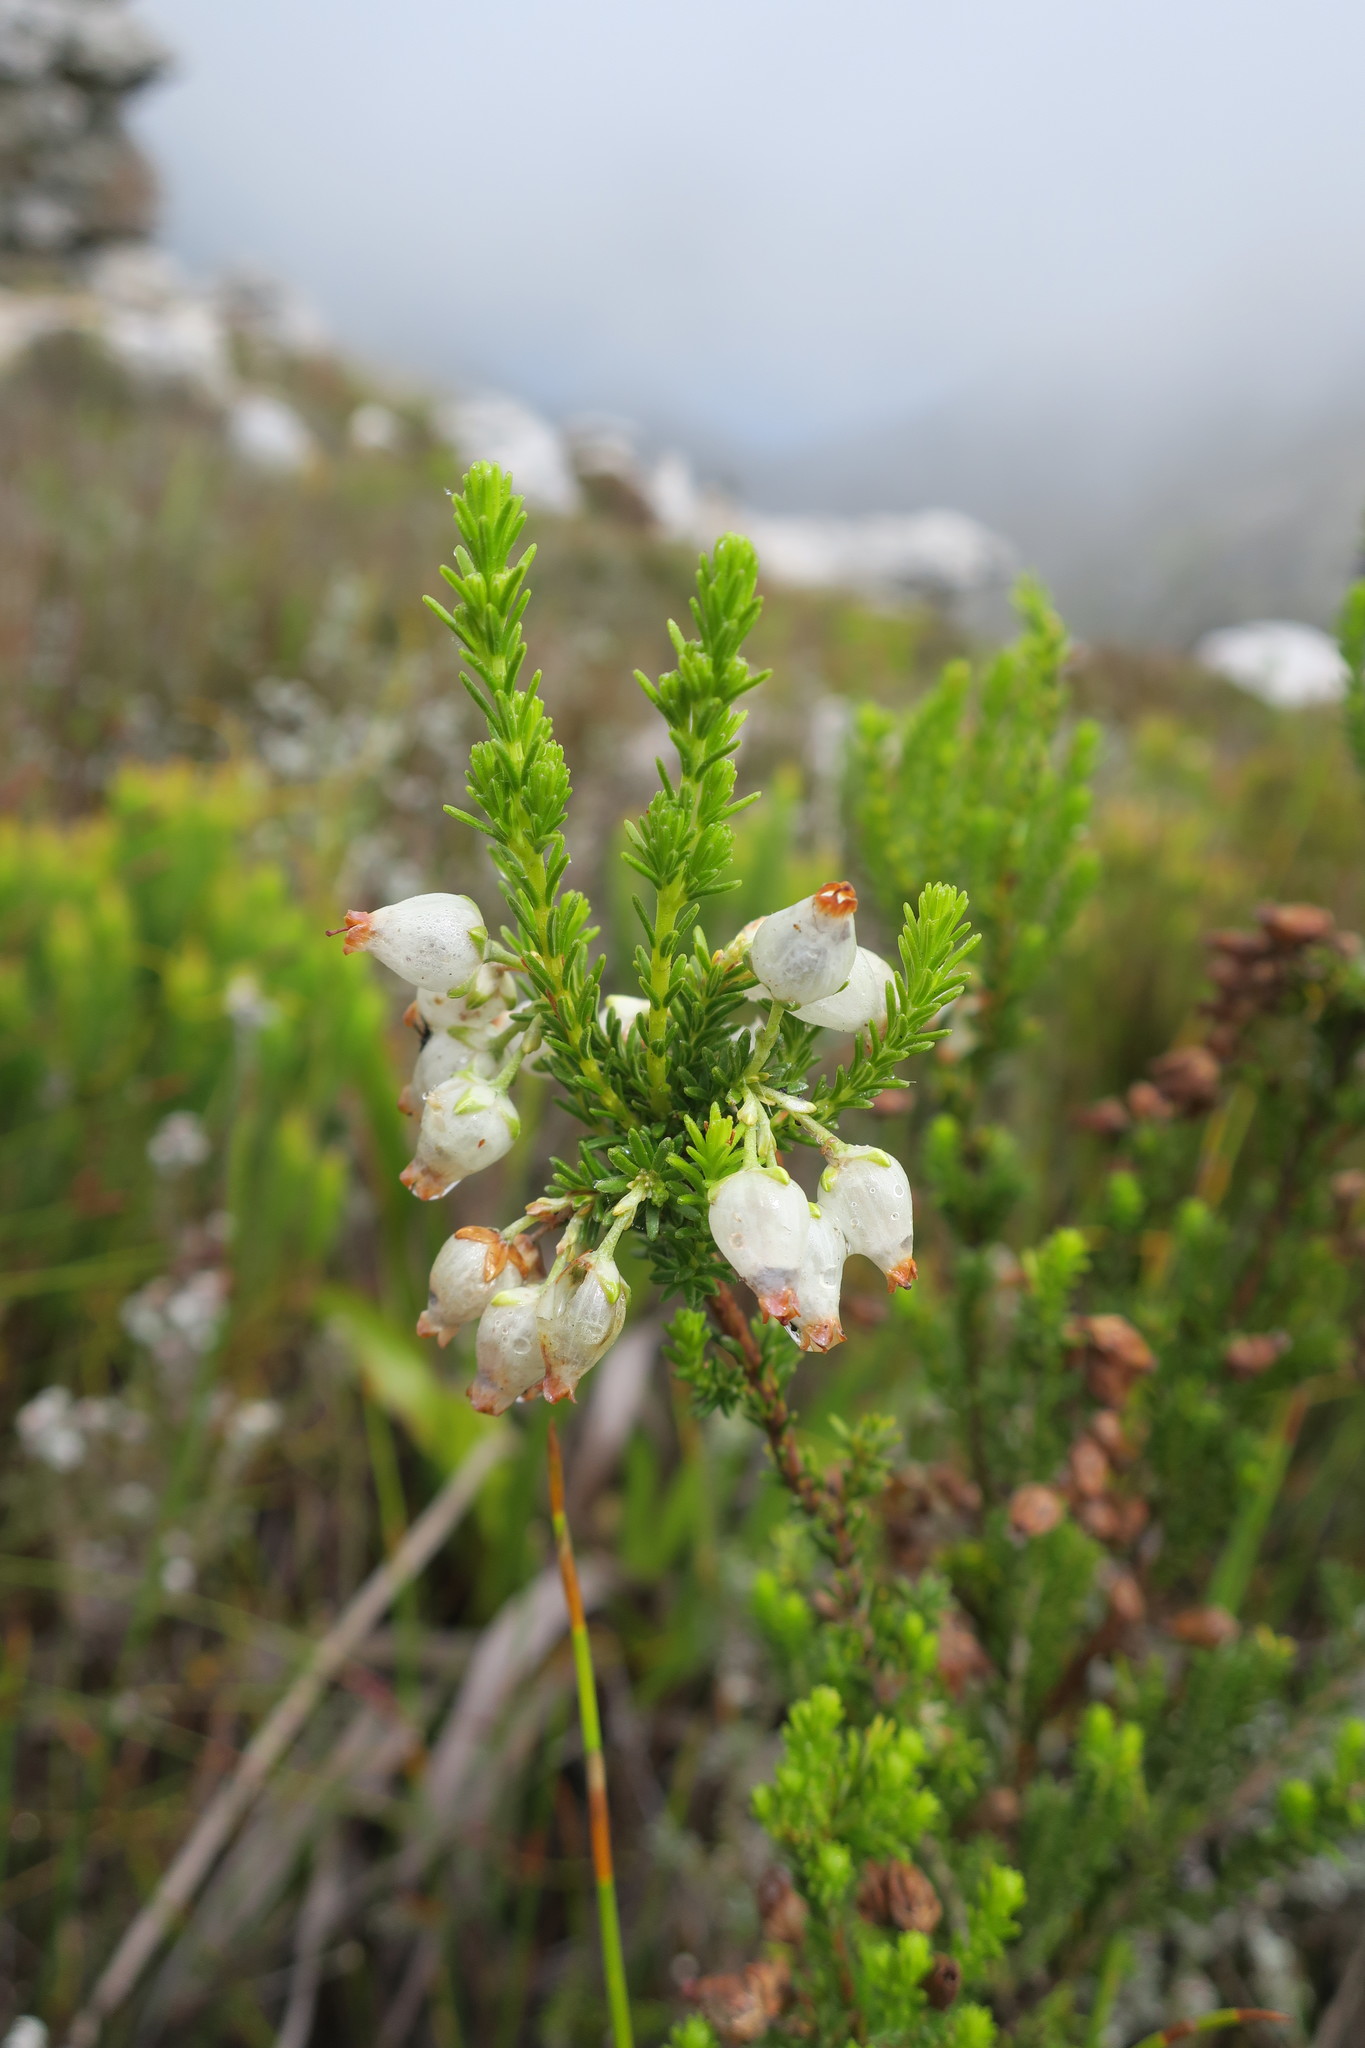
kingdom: Plantae
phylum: Tracheophyta
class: Magnoliopsida
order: Ericales
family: Ericaceae
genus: Erica
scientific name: Erica physodes
